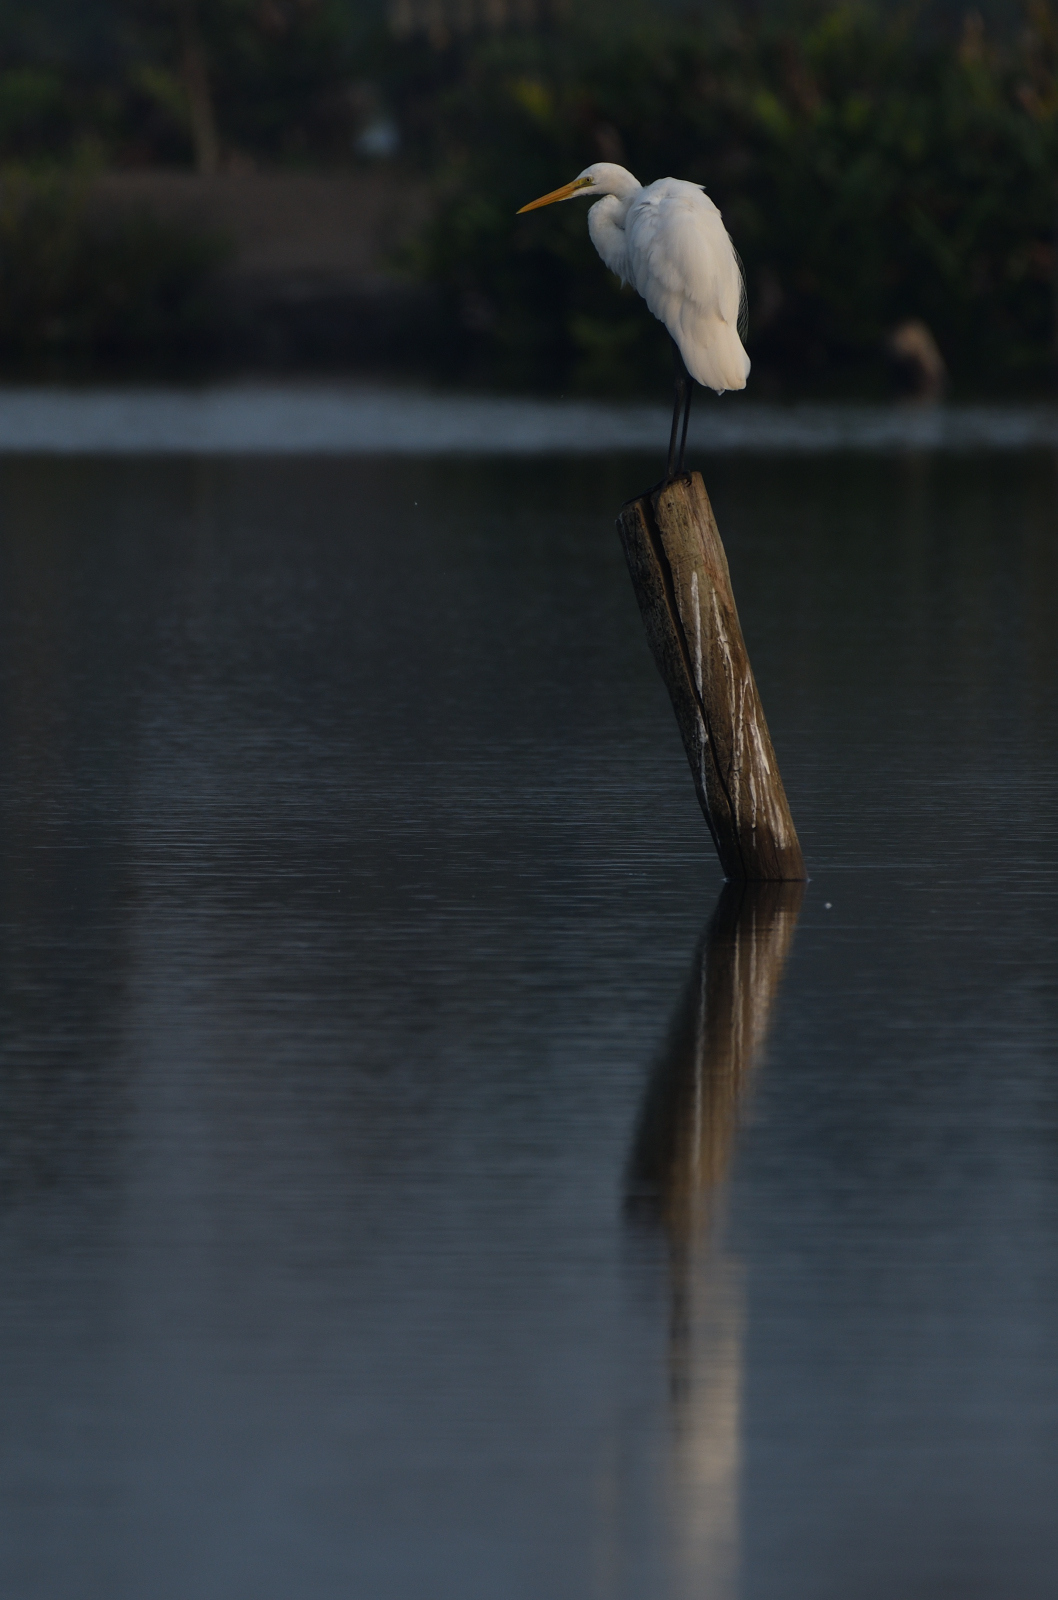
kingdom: Animalia
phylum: Chordata
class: Aves
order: Pelecaniformes
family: Ardeidae
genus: Ardea
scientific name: Ardea alba
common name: Great egret
